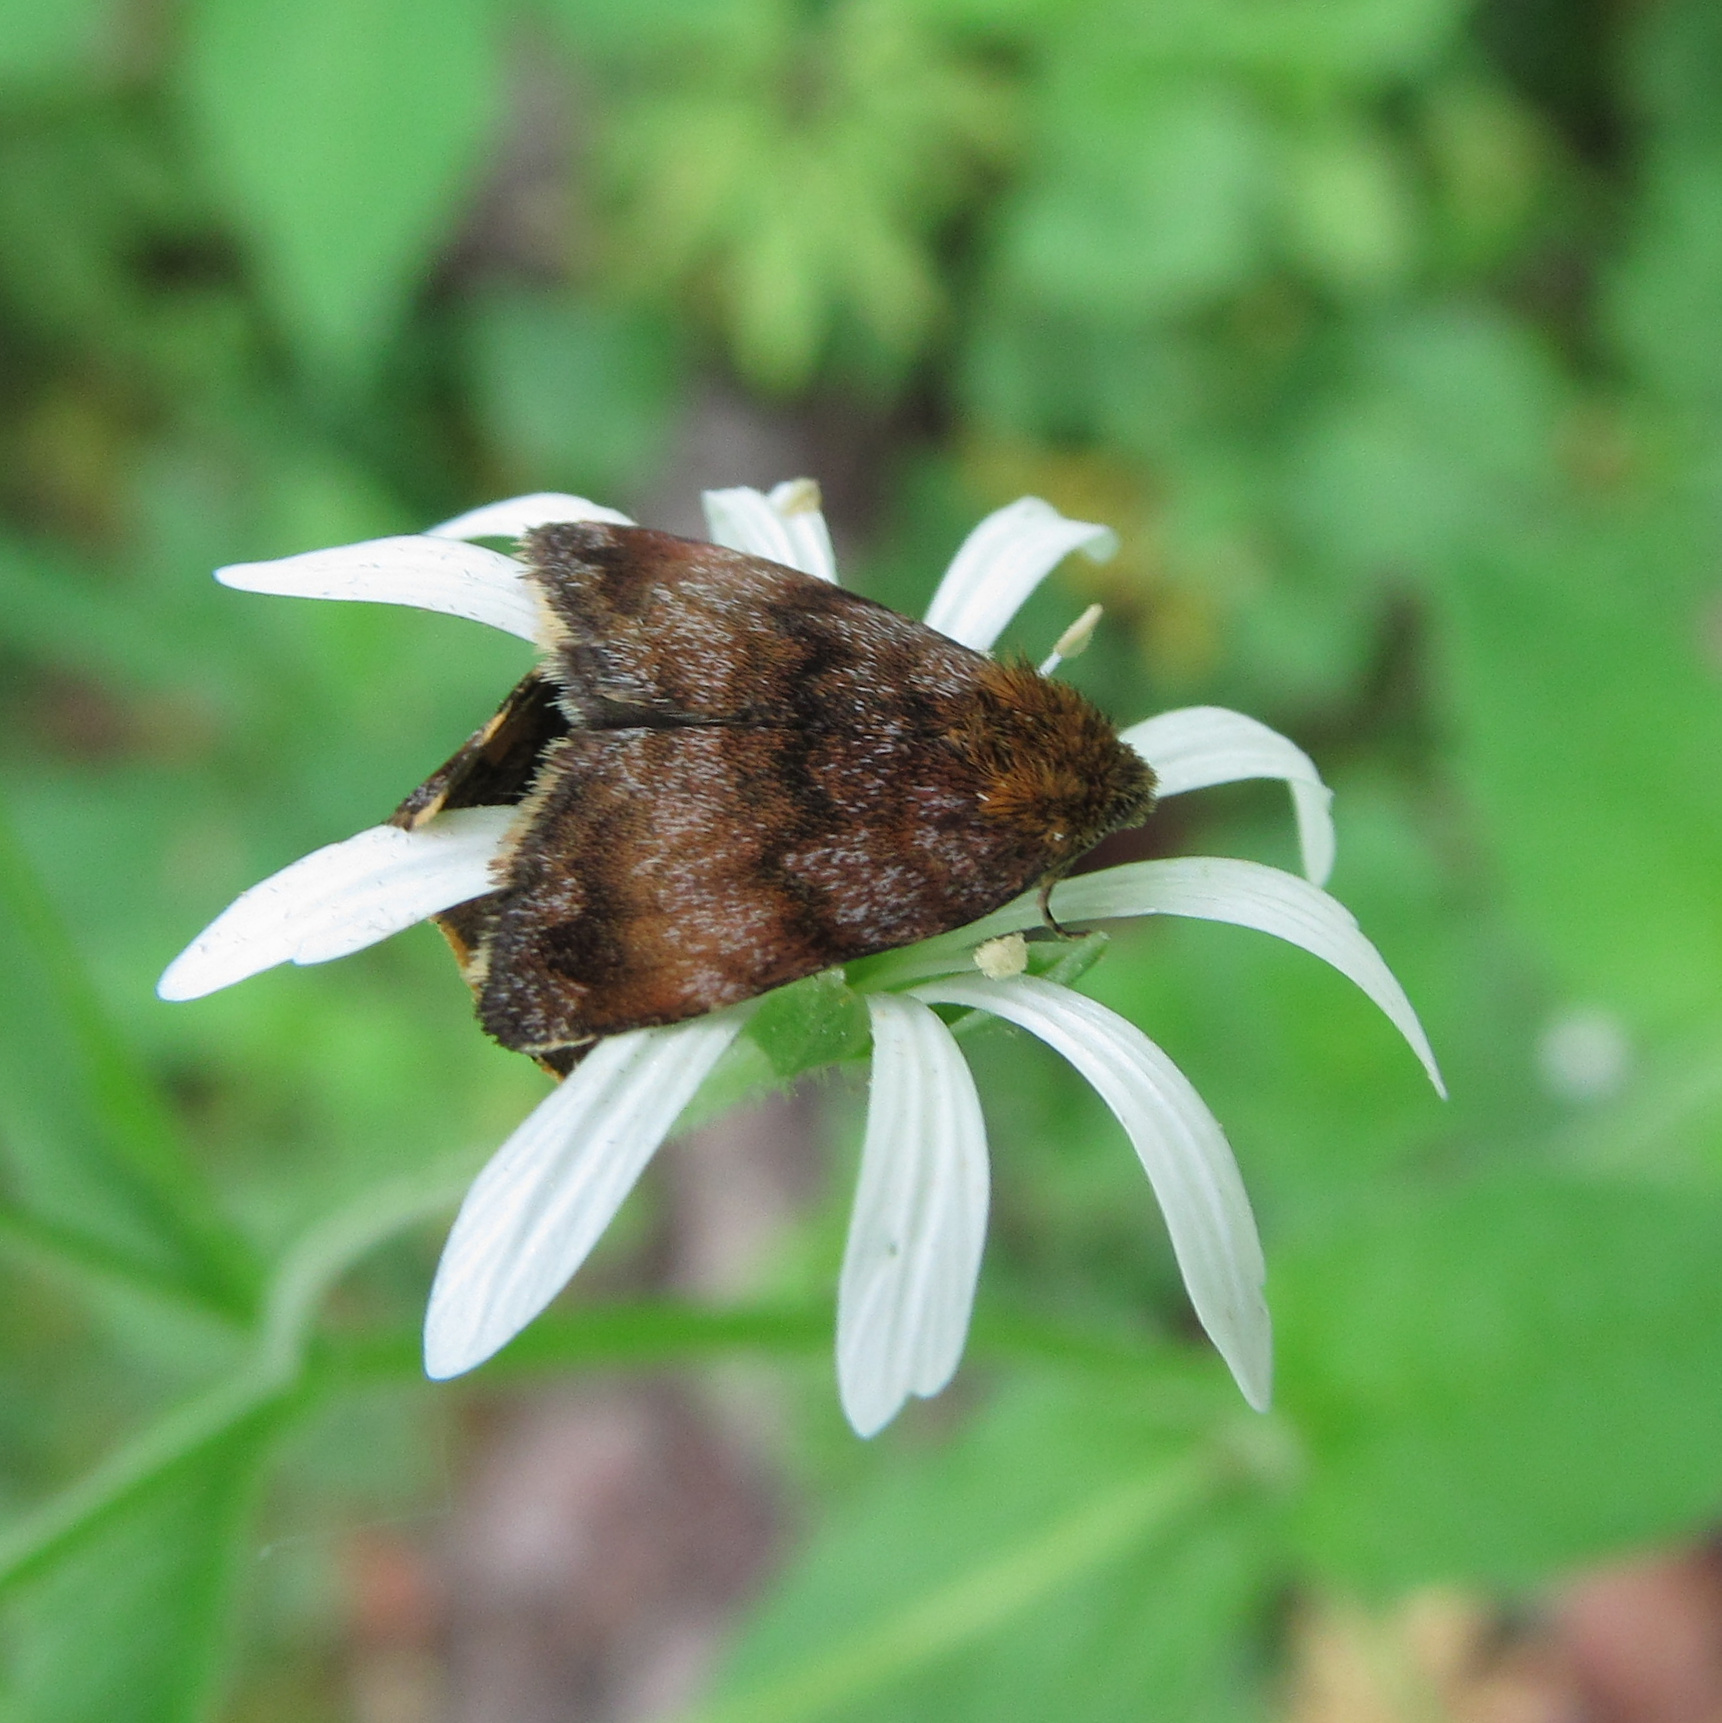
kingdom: Animalia
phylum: Arthropoda
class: Insecta
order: Lepidoptera
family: Noctuidae
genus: Panemeria
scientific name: Panemeria tenebrata
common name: Small yellow underwing
